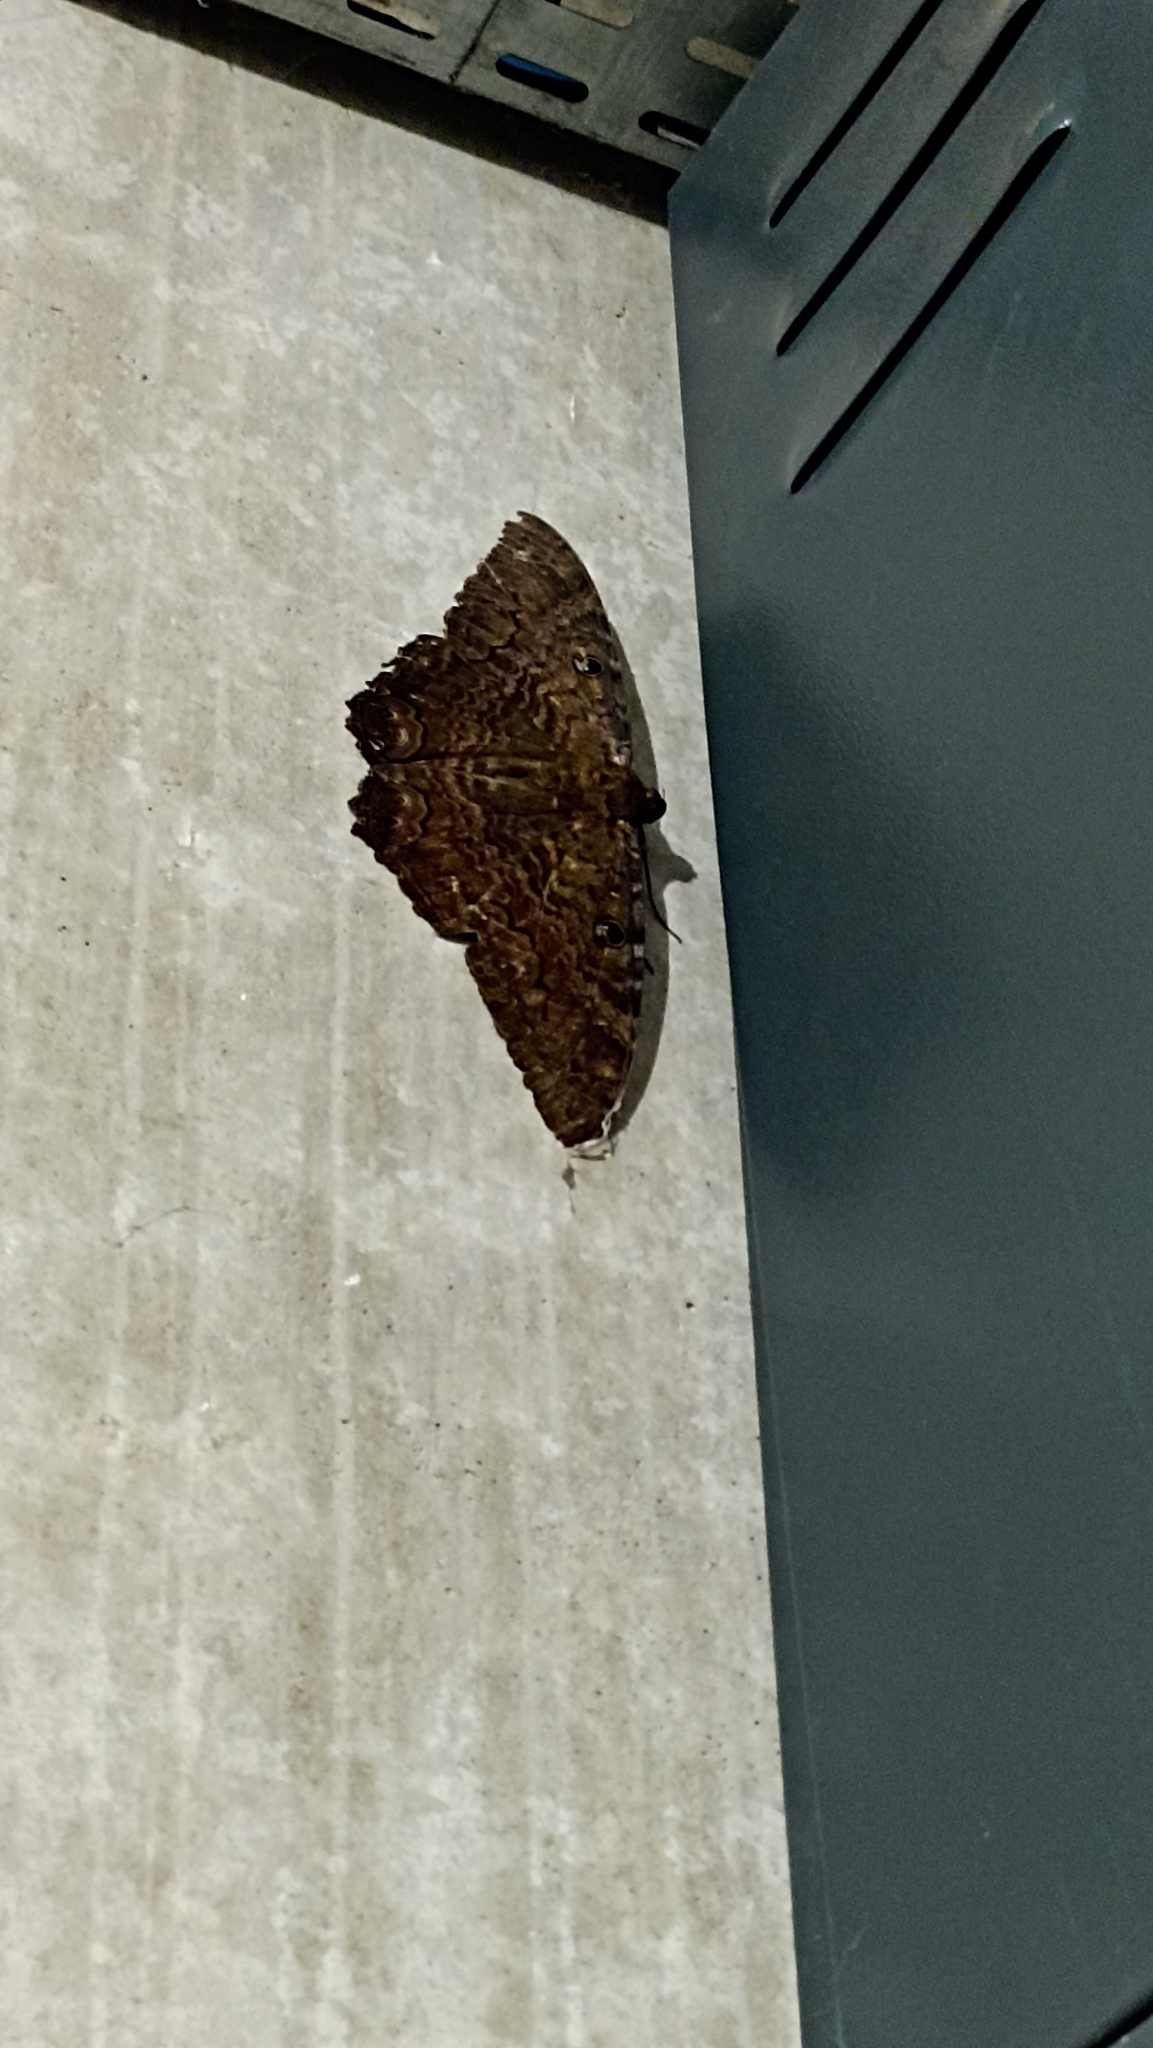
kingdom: Animalia
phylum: Arthropoda
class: Insecta
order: Lepidoptera
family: Erebidae
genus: Ascalapha
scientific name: Ascalapha odorata
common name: Black witch
